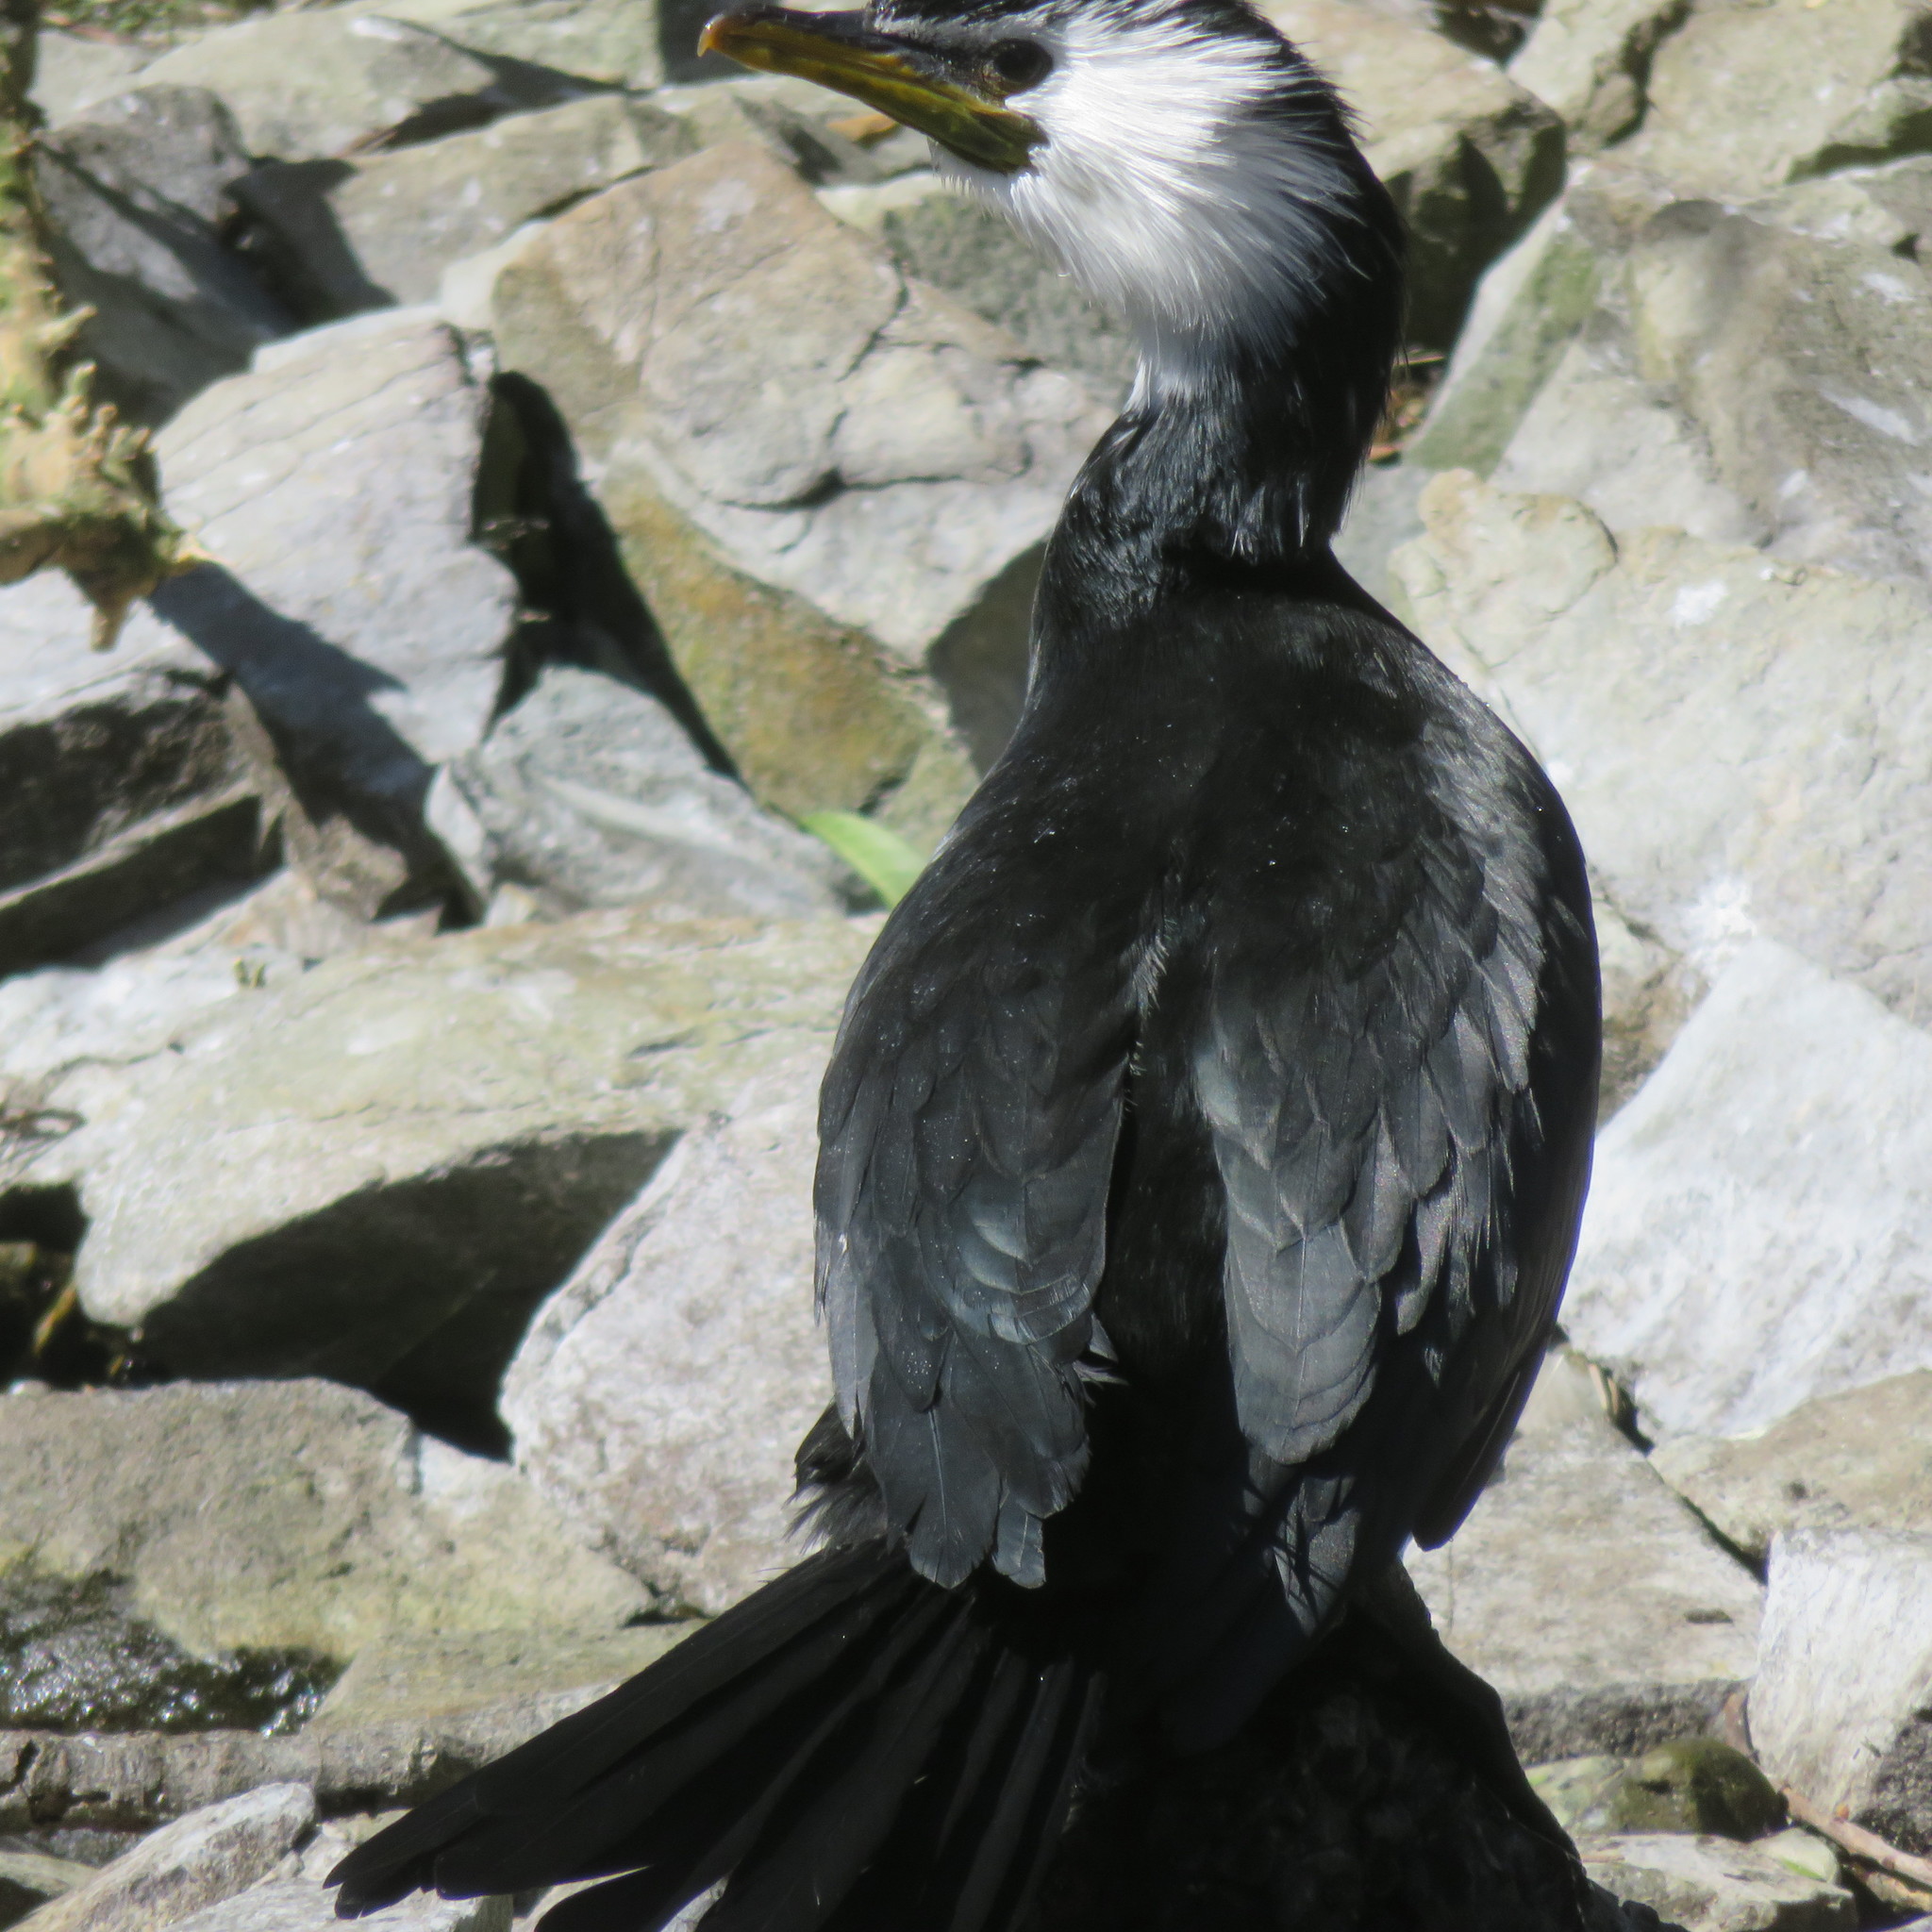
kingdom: Animalia
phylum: Chordata
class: Aves
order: Suliformes
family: Phalacrocoracidae
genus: Microcarbo
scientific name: Microcarbo melanoleucos
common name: Little pied cormorant
